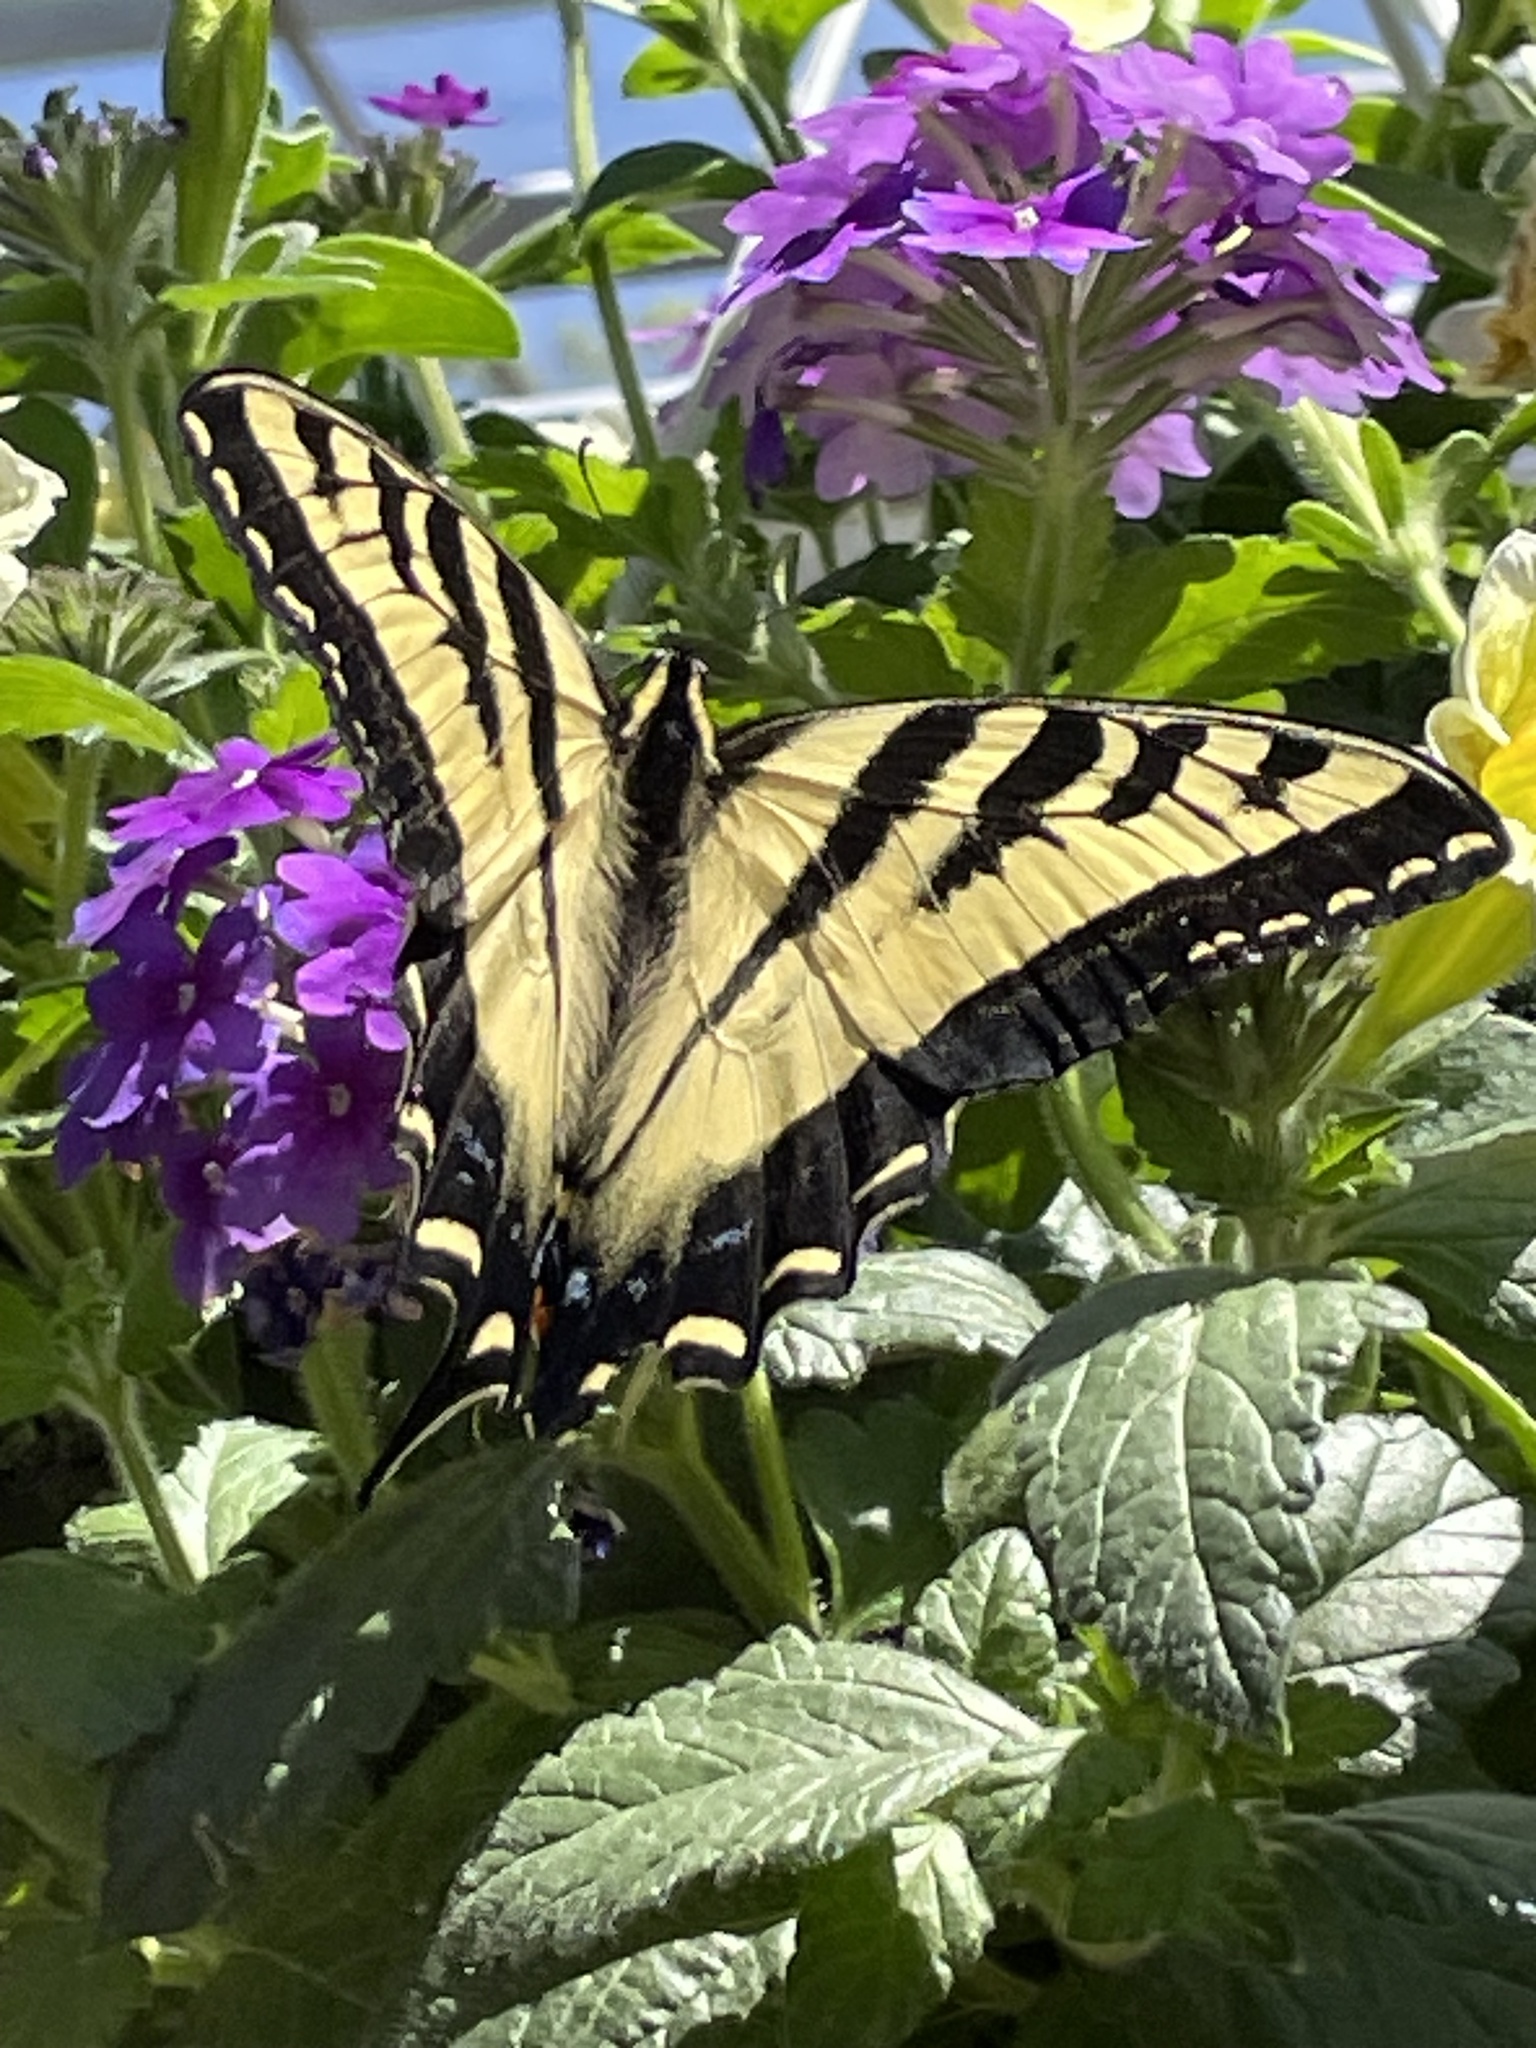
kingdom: Animalia
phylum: Arthropoda
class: Insecta
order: Lepidoptera
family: Papilionidae
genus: Papilio
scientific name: Papilio rutulus
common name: Western tiger swallowtail
